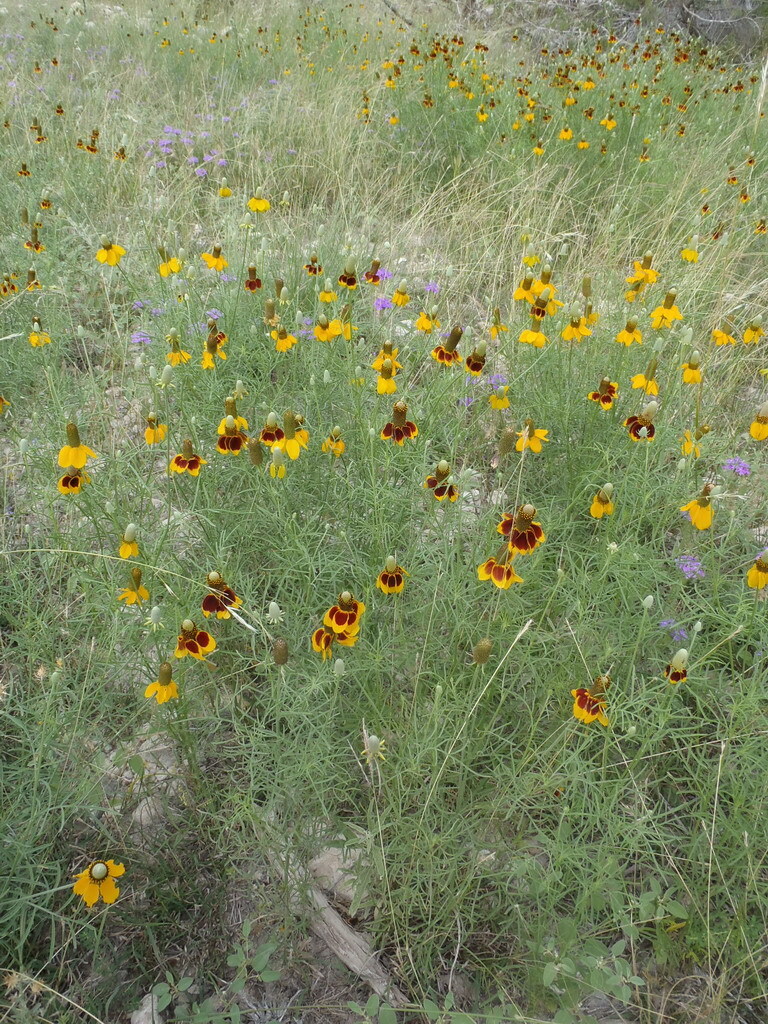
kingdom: Plantae
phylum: Tracheophyta
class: Magnoliopsida
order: Asterales
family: Asteraceae
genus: Ratibida
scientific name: Ratibida columnifera
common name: Prairie coneflower
